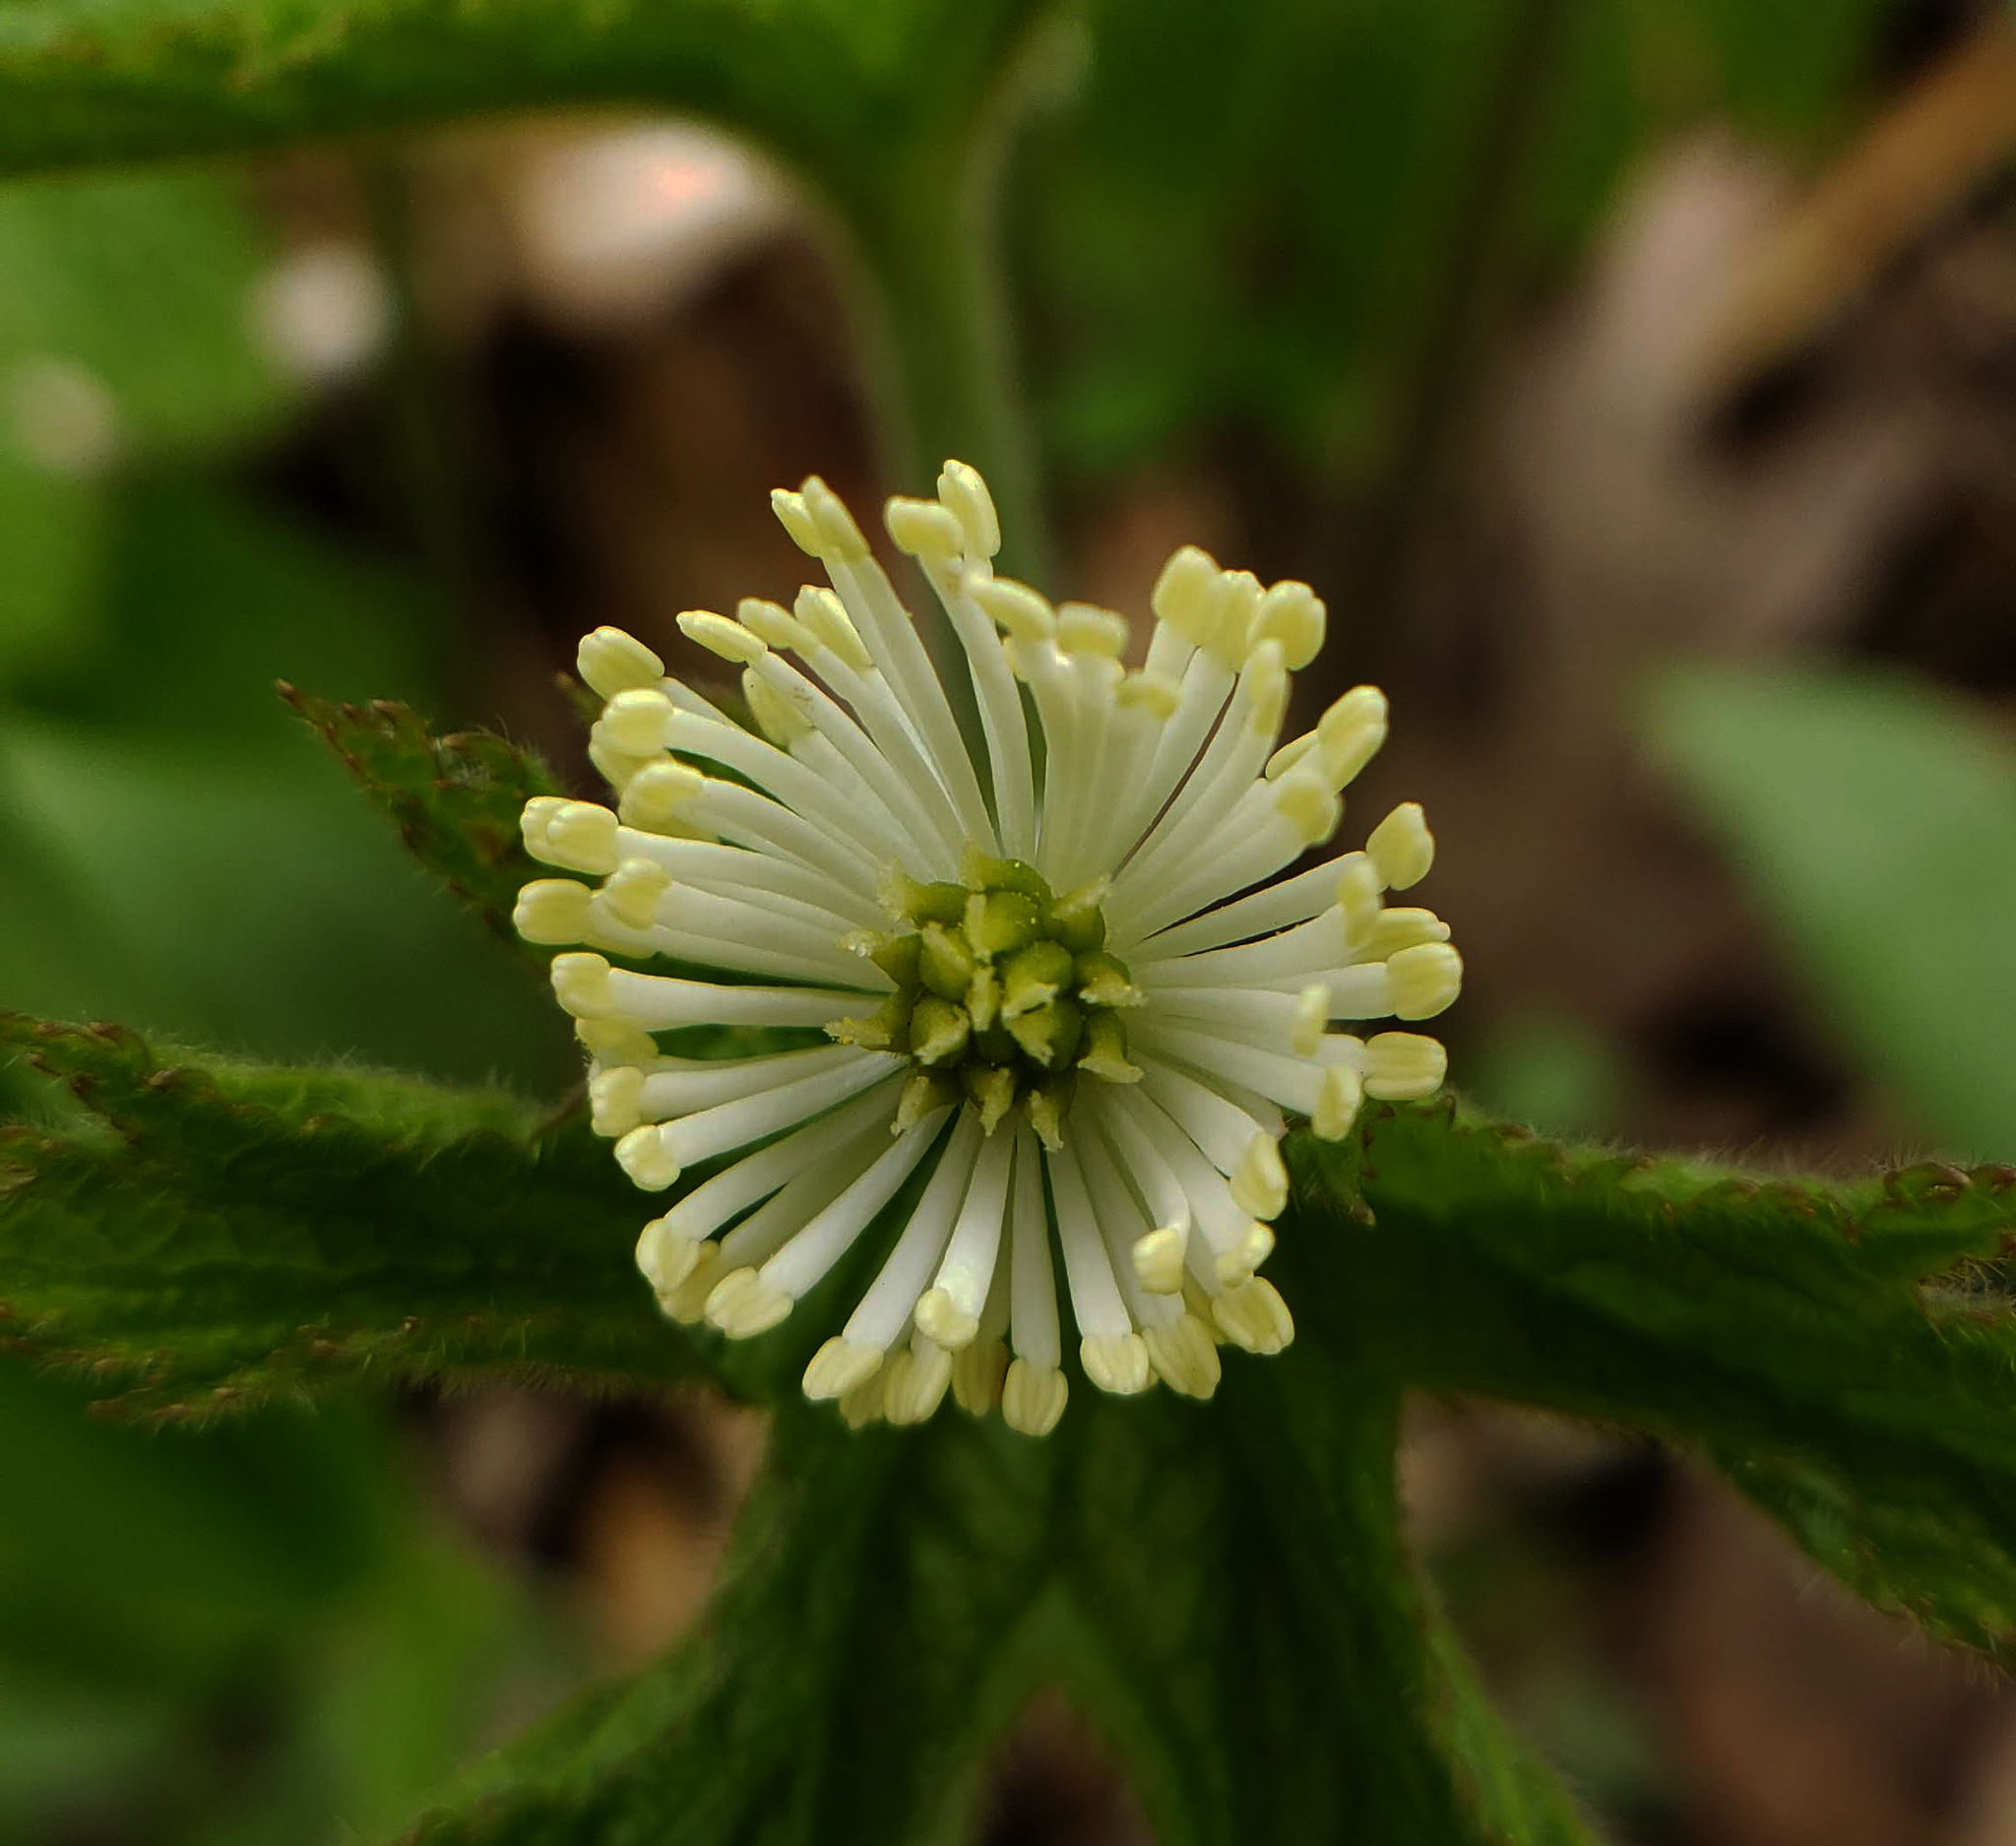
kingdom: Plantae
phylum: Tracheophyta
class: Magnoliopsida
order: Ranunculales
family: Ranunculaceae
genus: Hydrastis
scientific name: Hydrastis canadensis
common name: Goldenseal
